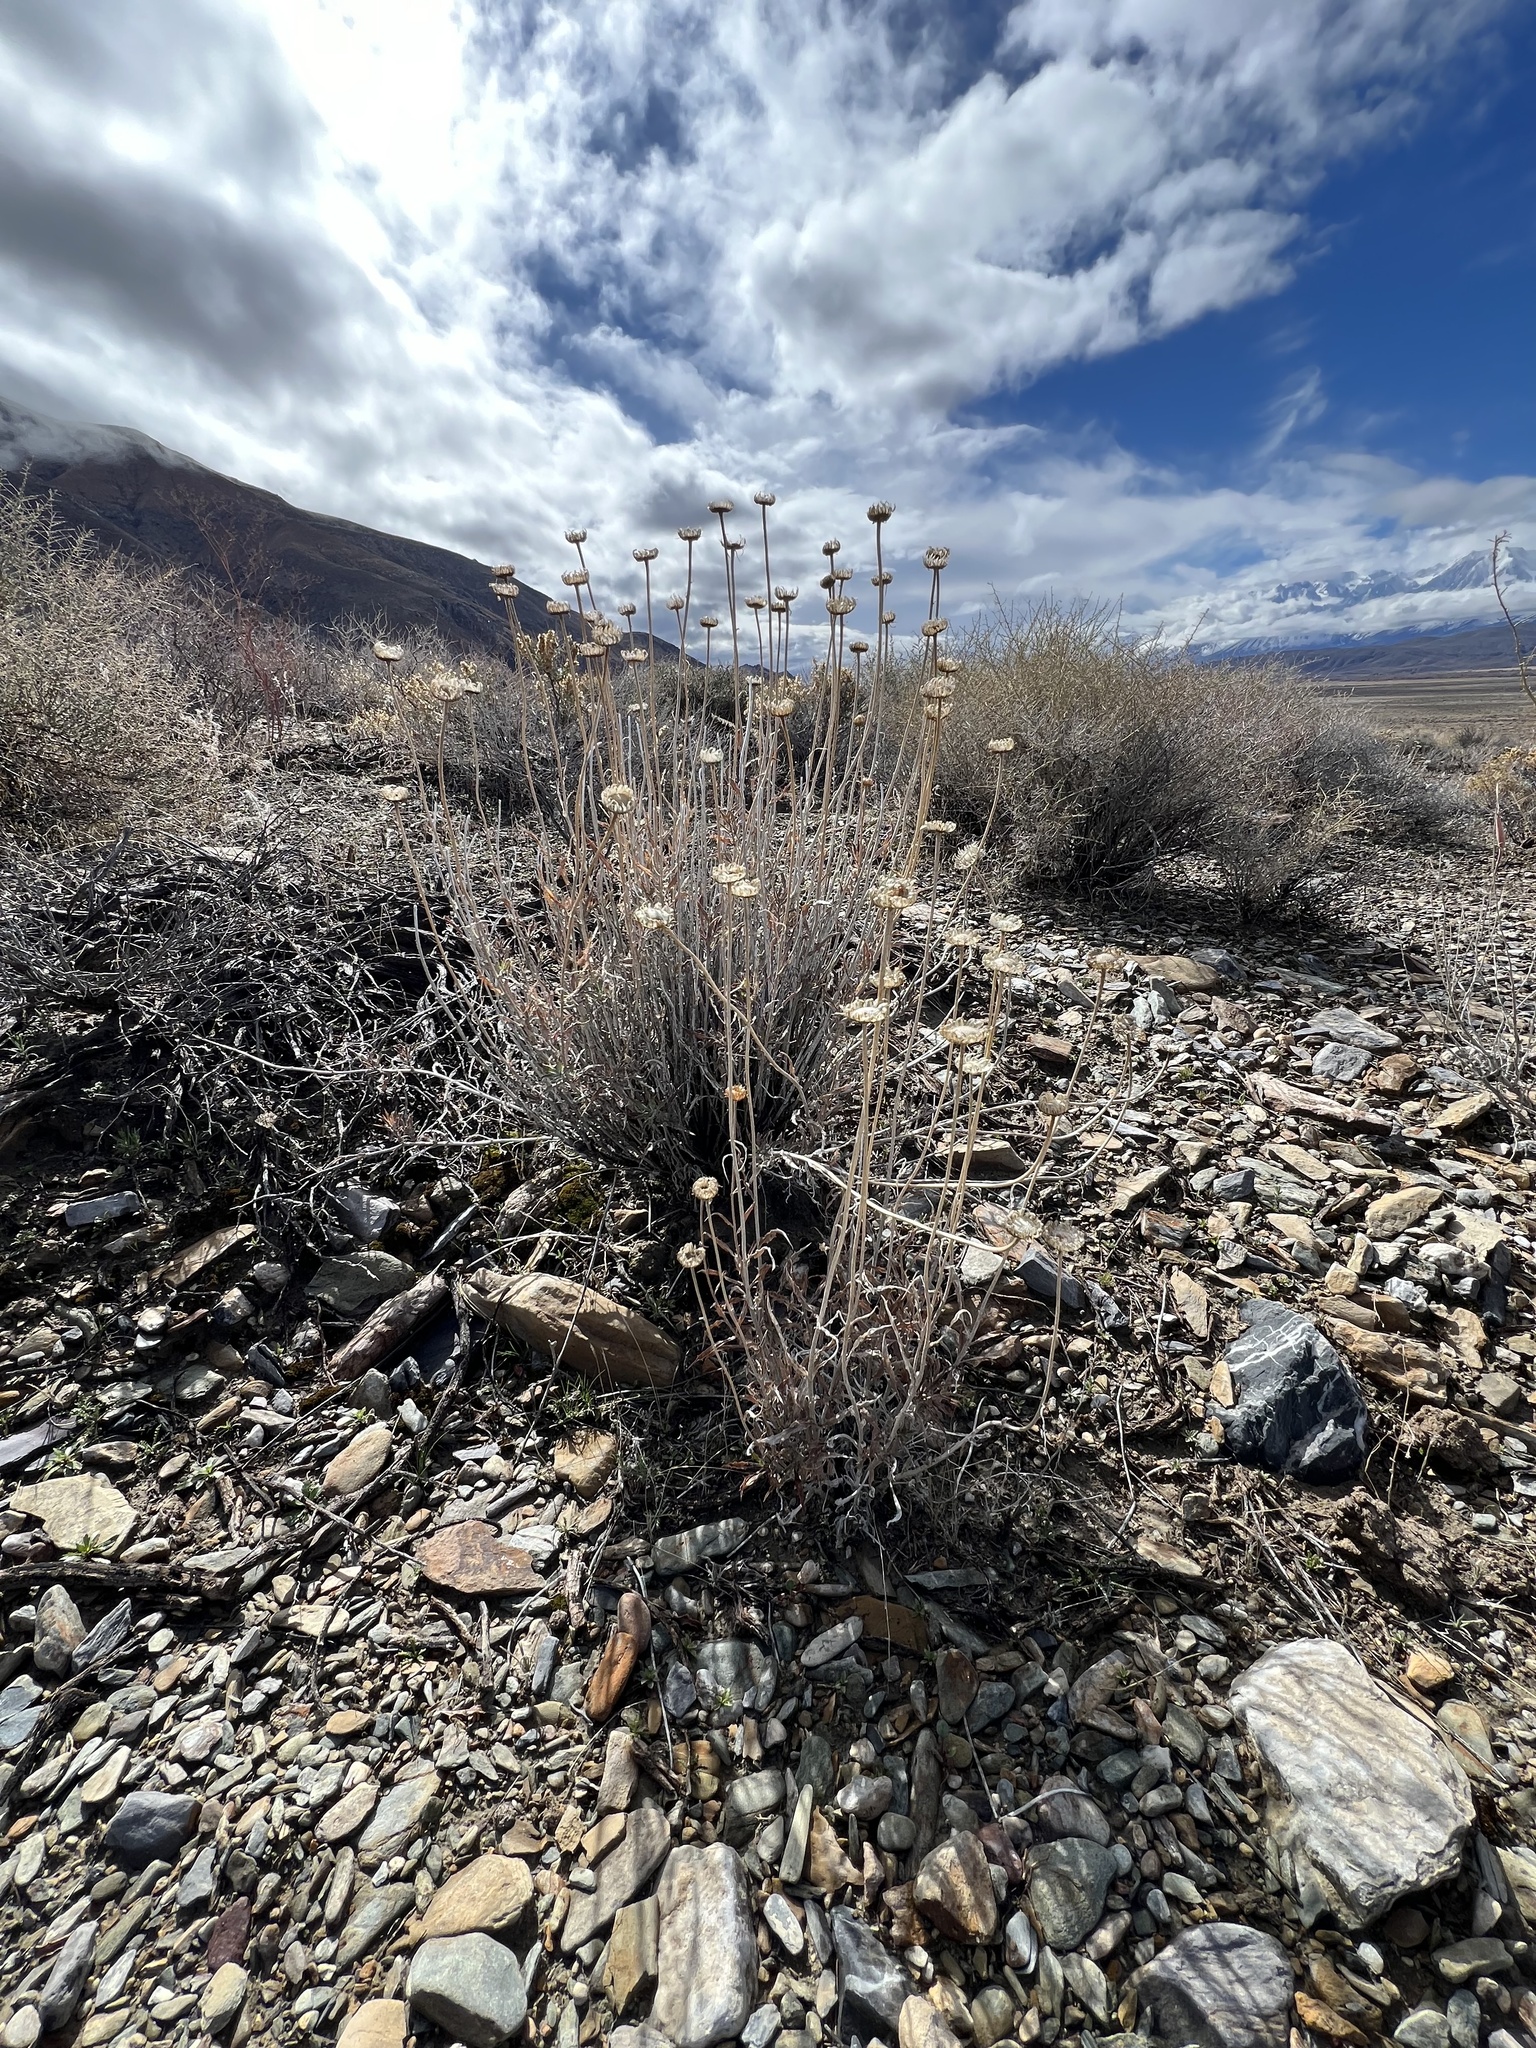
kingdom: Plantae
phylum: Tracheophyta
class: Magnoliopsida
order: Asterales
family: Asteraceae
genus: Xylorhiza
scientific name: Xylorhiza tortifolia
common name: Hurt-leaf woody-aster
